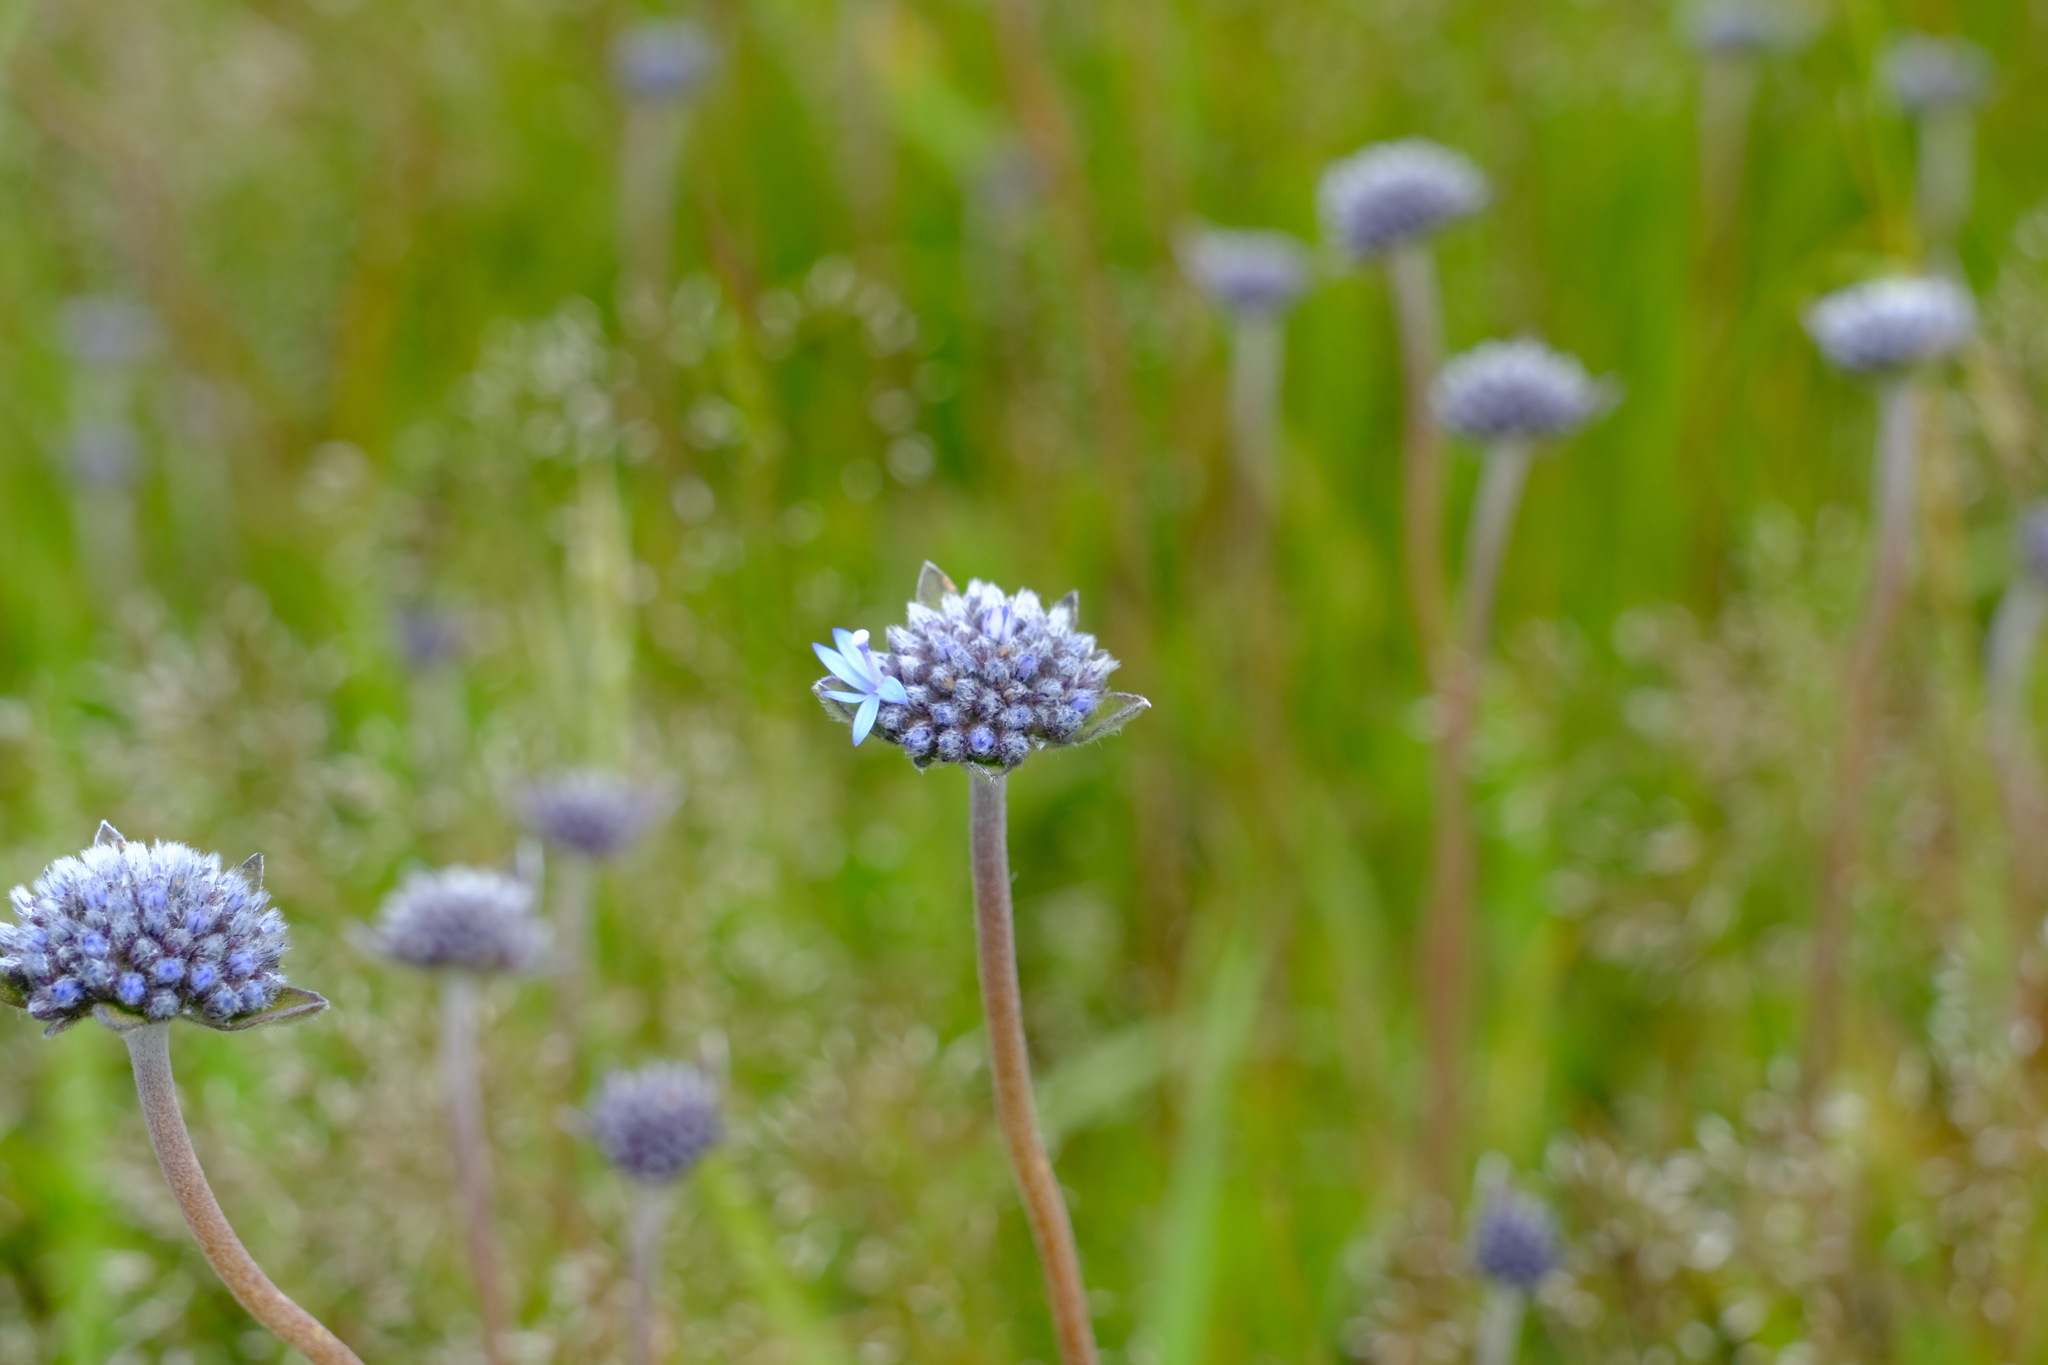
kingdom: Plantae
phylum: Tracheophyta
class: Magnoliopsida
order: Asterales
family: Goodeniaceae
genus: Brunonia
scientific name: Brunonia australis
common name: Blue pincushion
